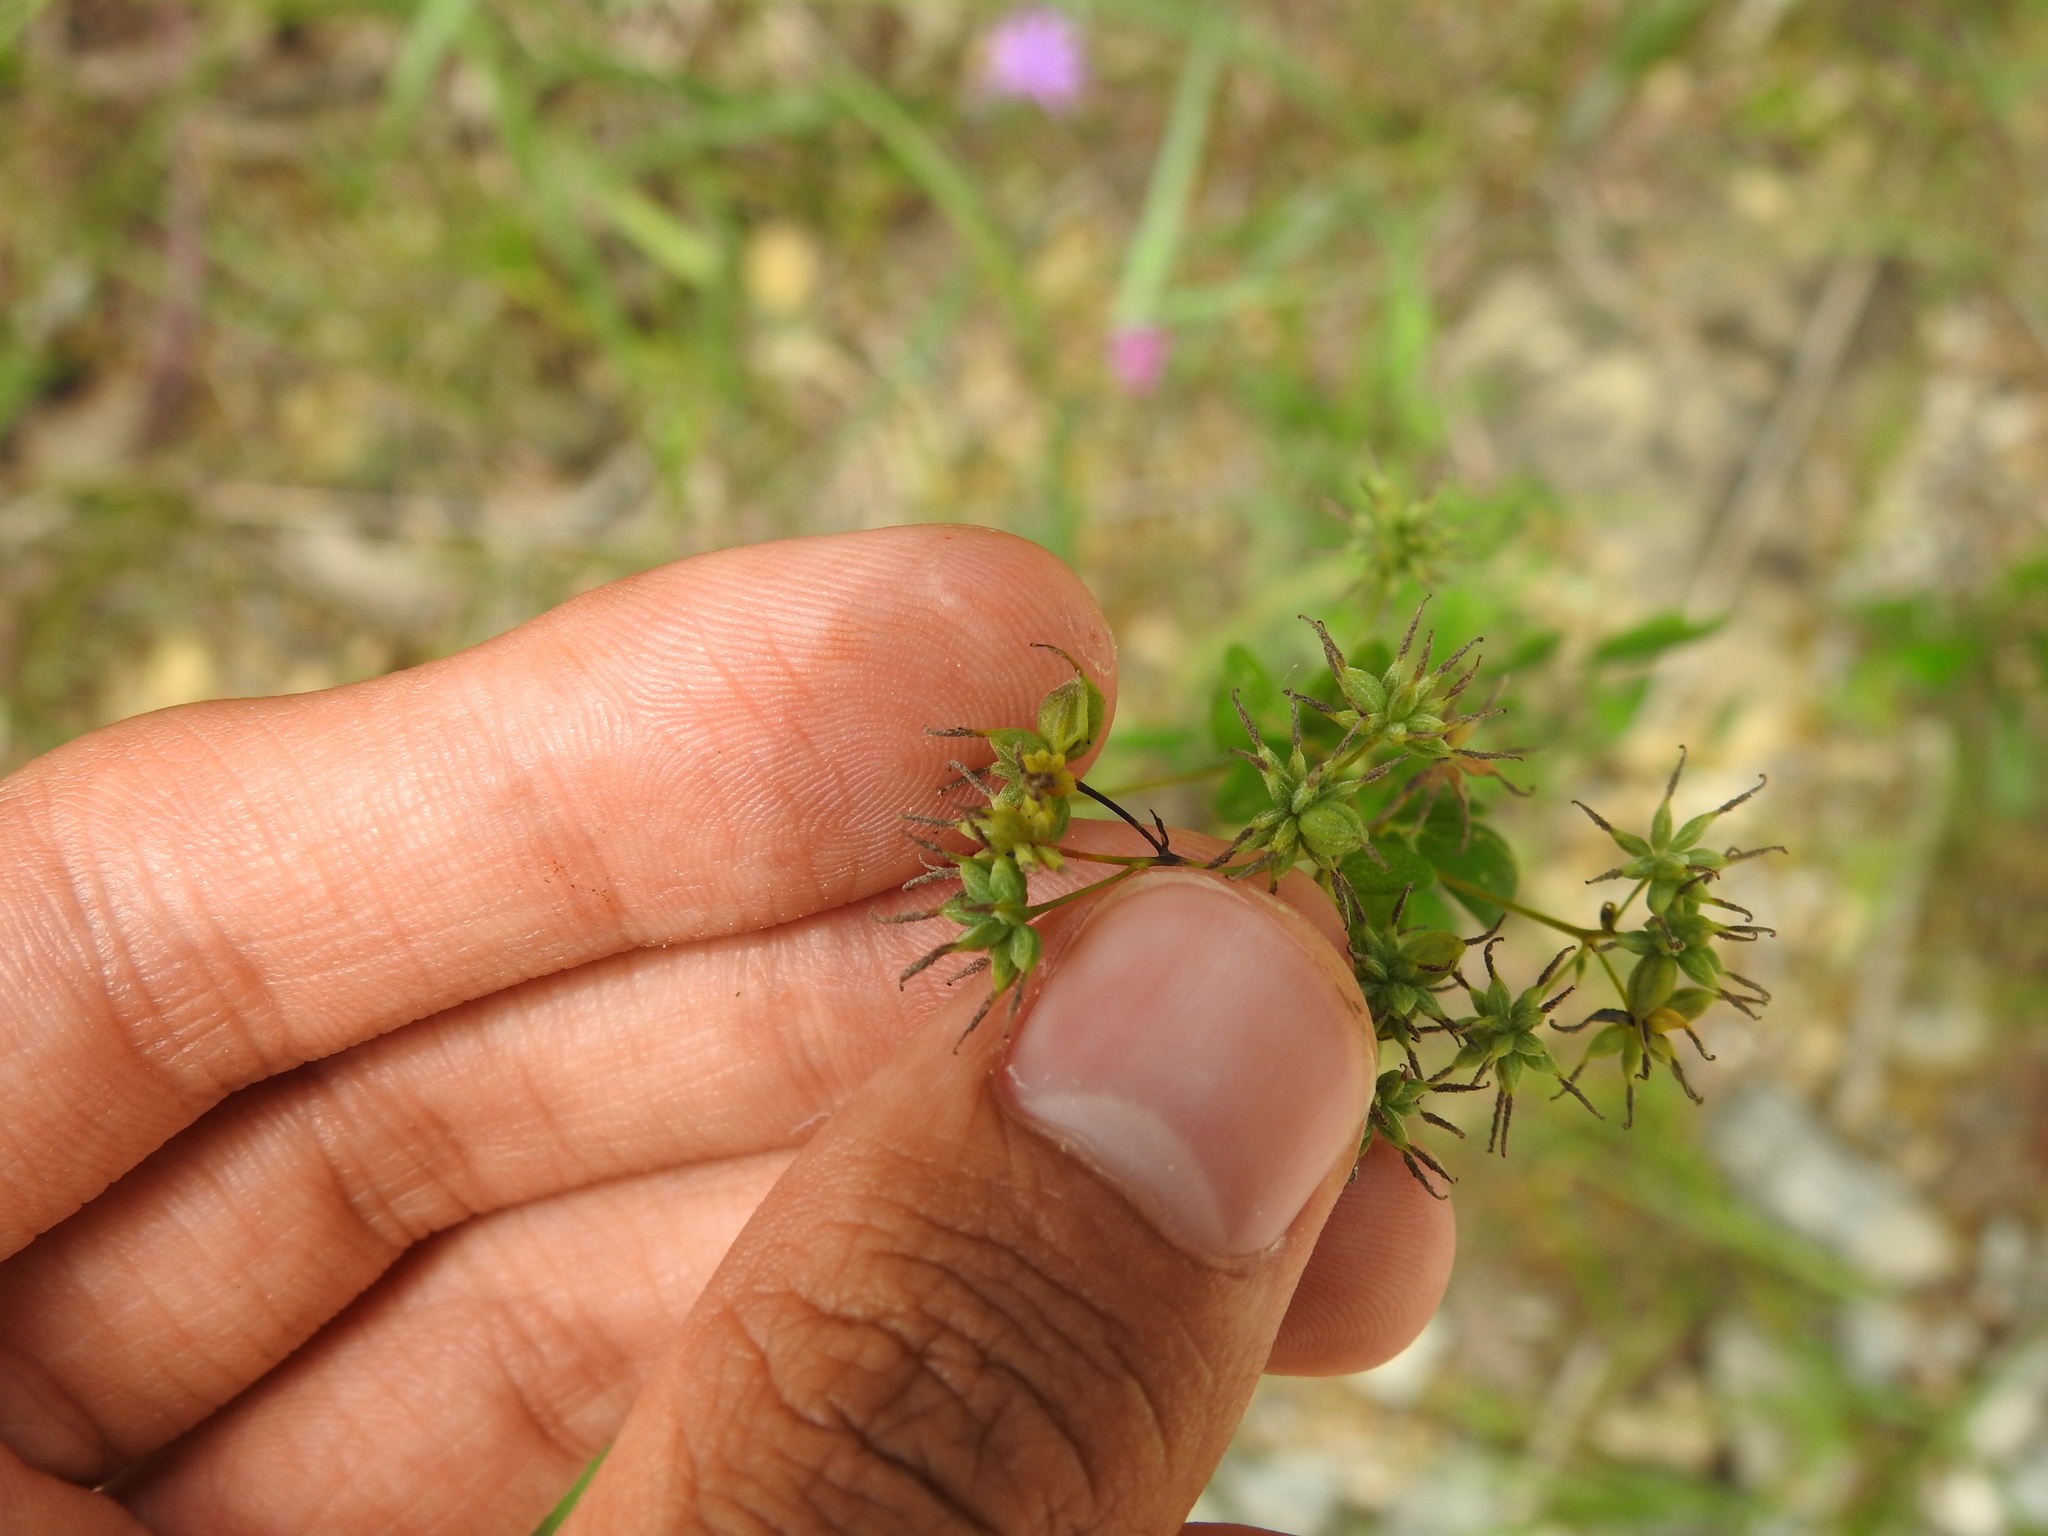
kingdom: Animalia
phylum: Arthropoda
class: Insecta
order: Diptera
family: Cecidomyiidae
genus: Asphondylia
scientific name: Asphondylia thalictri
